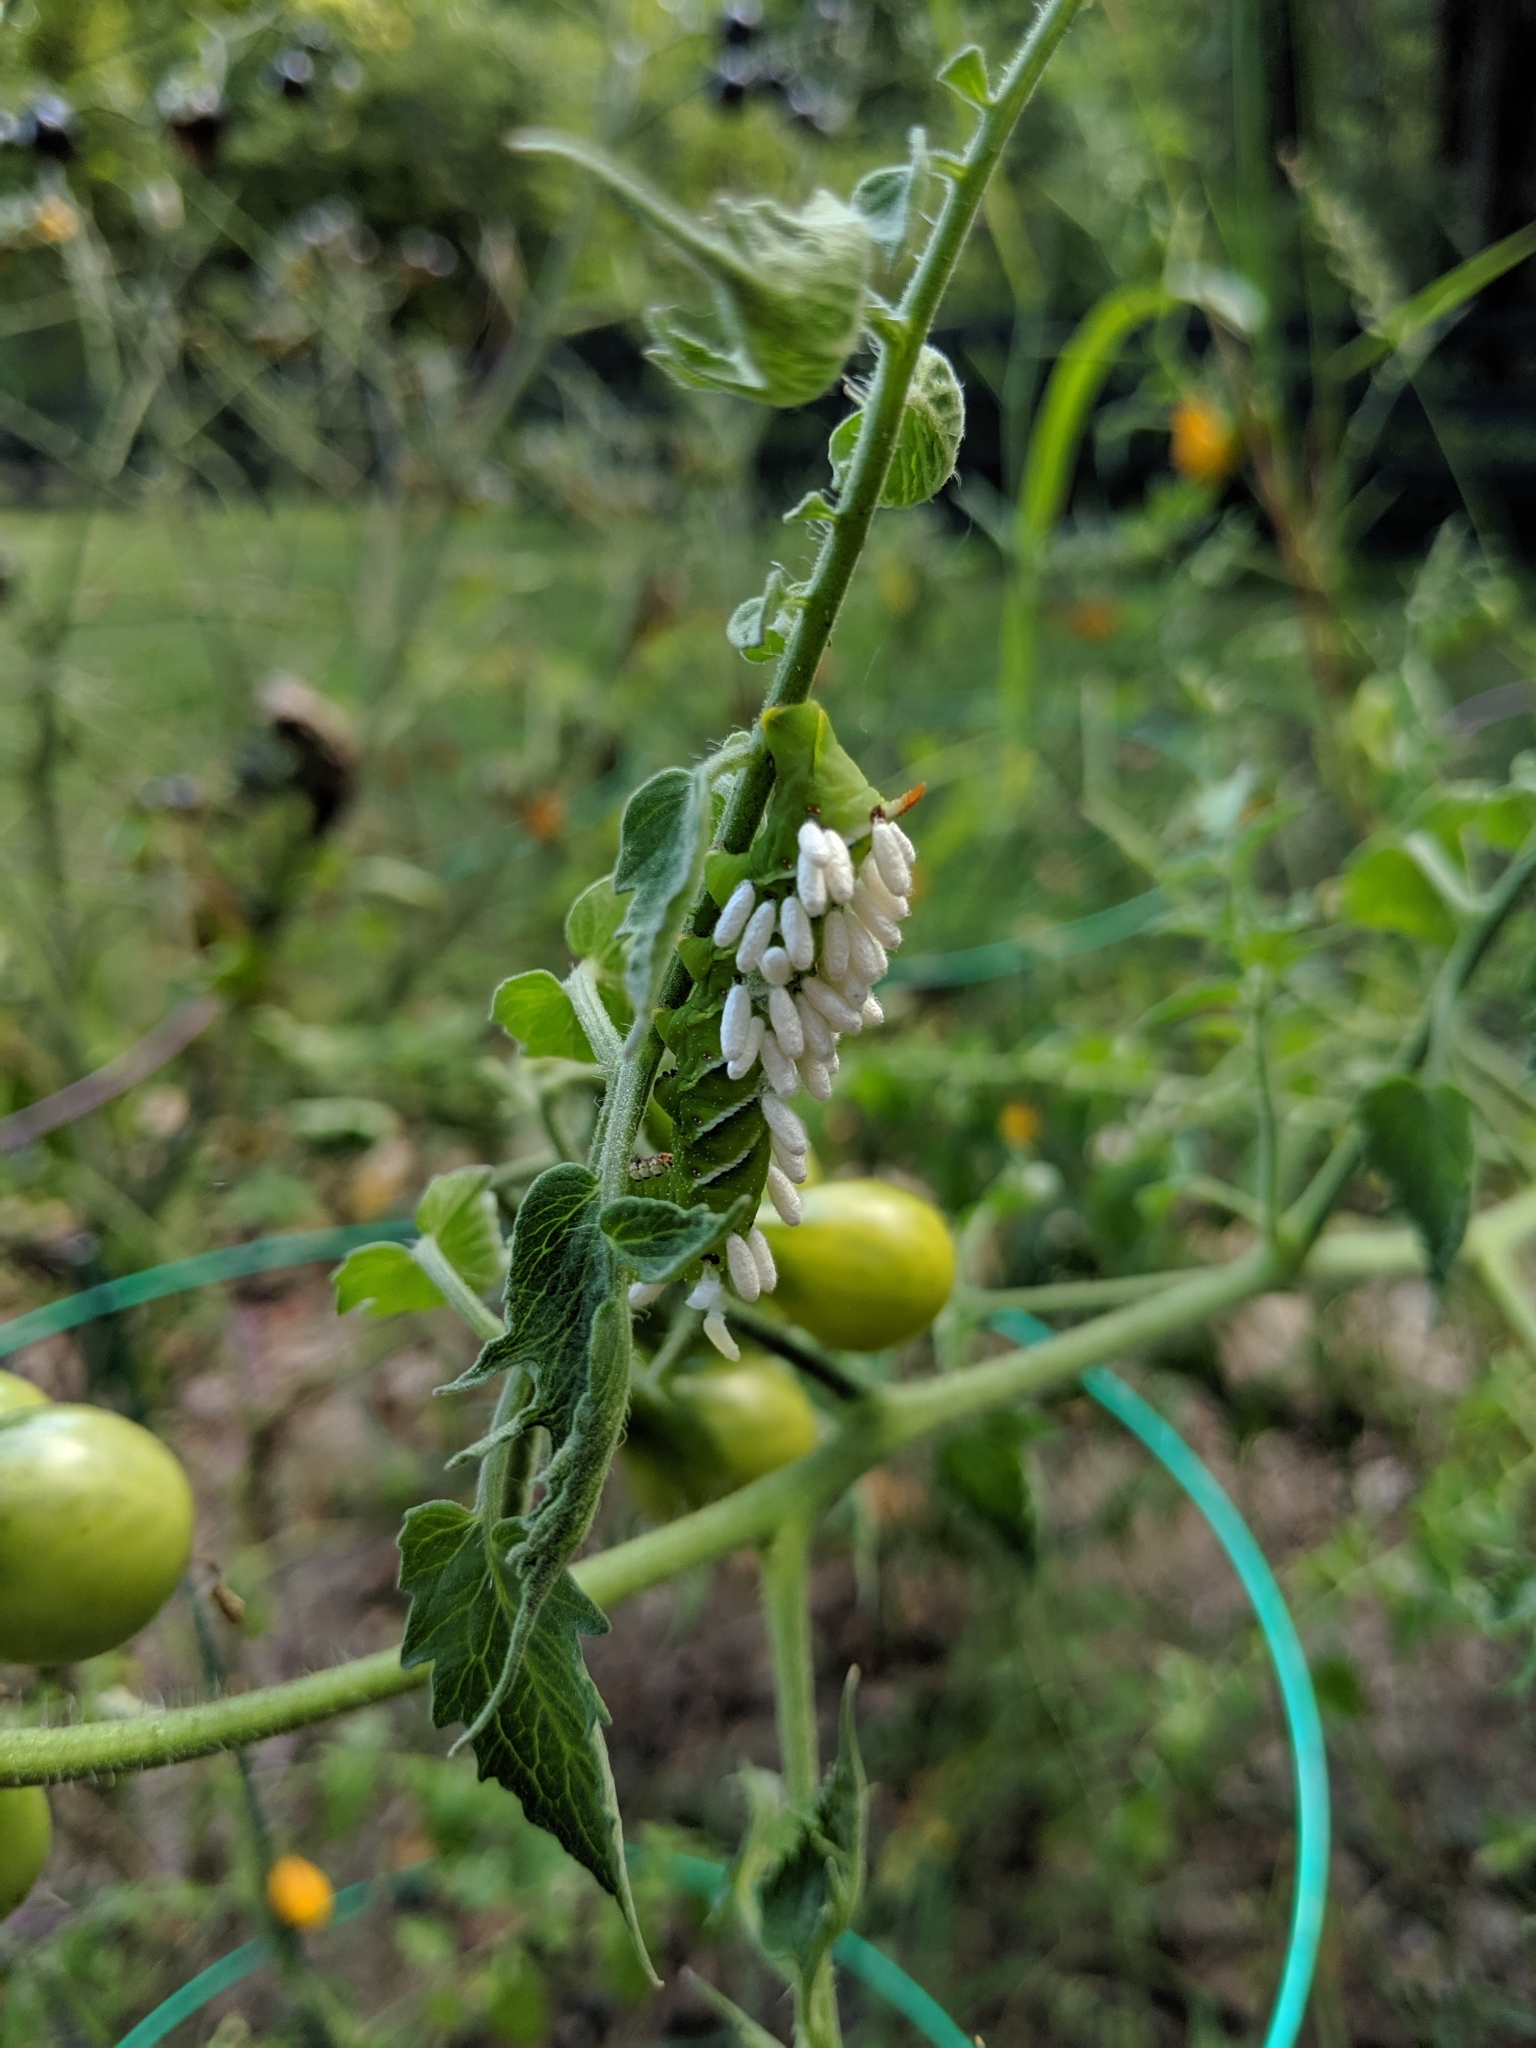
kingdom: Animalia
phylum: Arthropoda
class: Insecta
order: Hymenoptera
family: Braconidae
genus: Cotesia
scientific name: Cotesia congregata
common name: Hornworm parasitoid wasp
